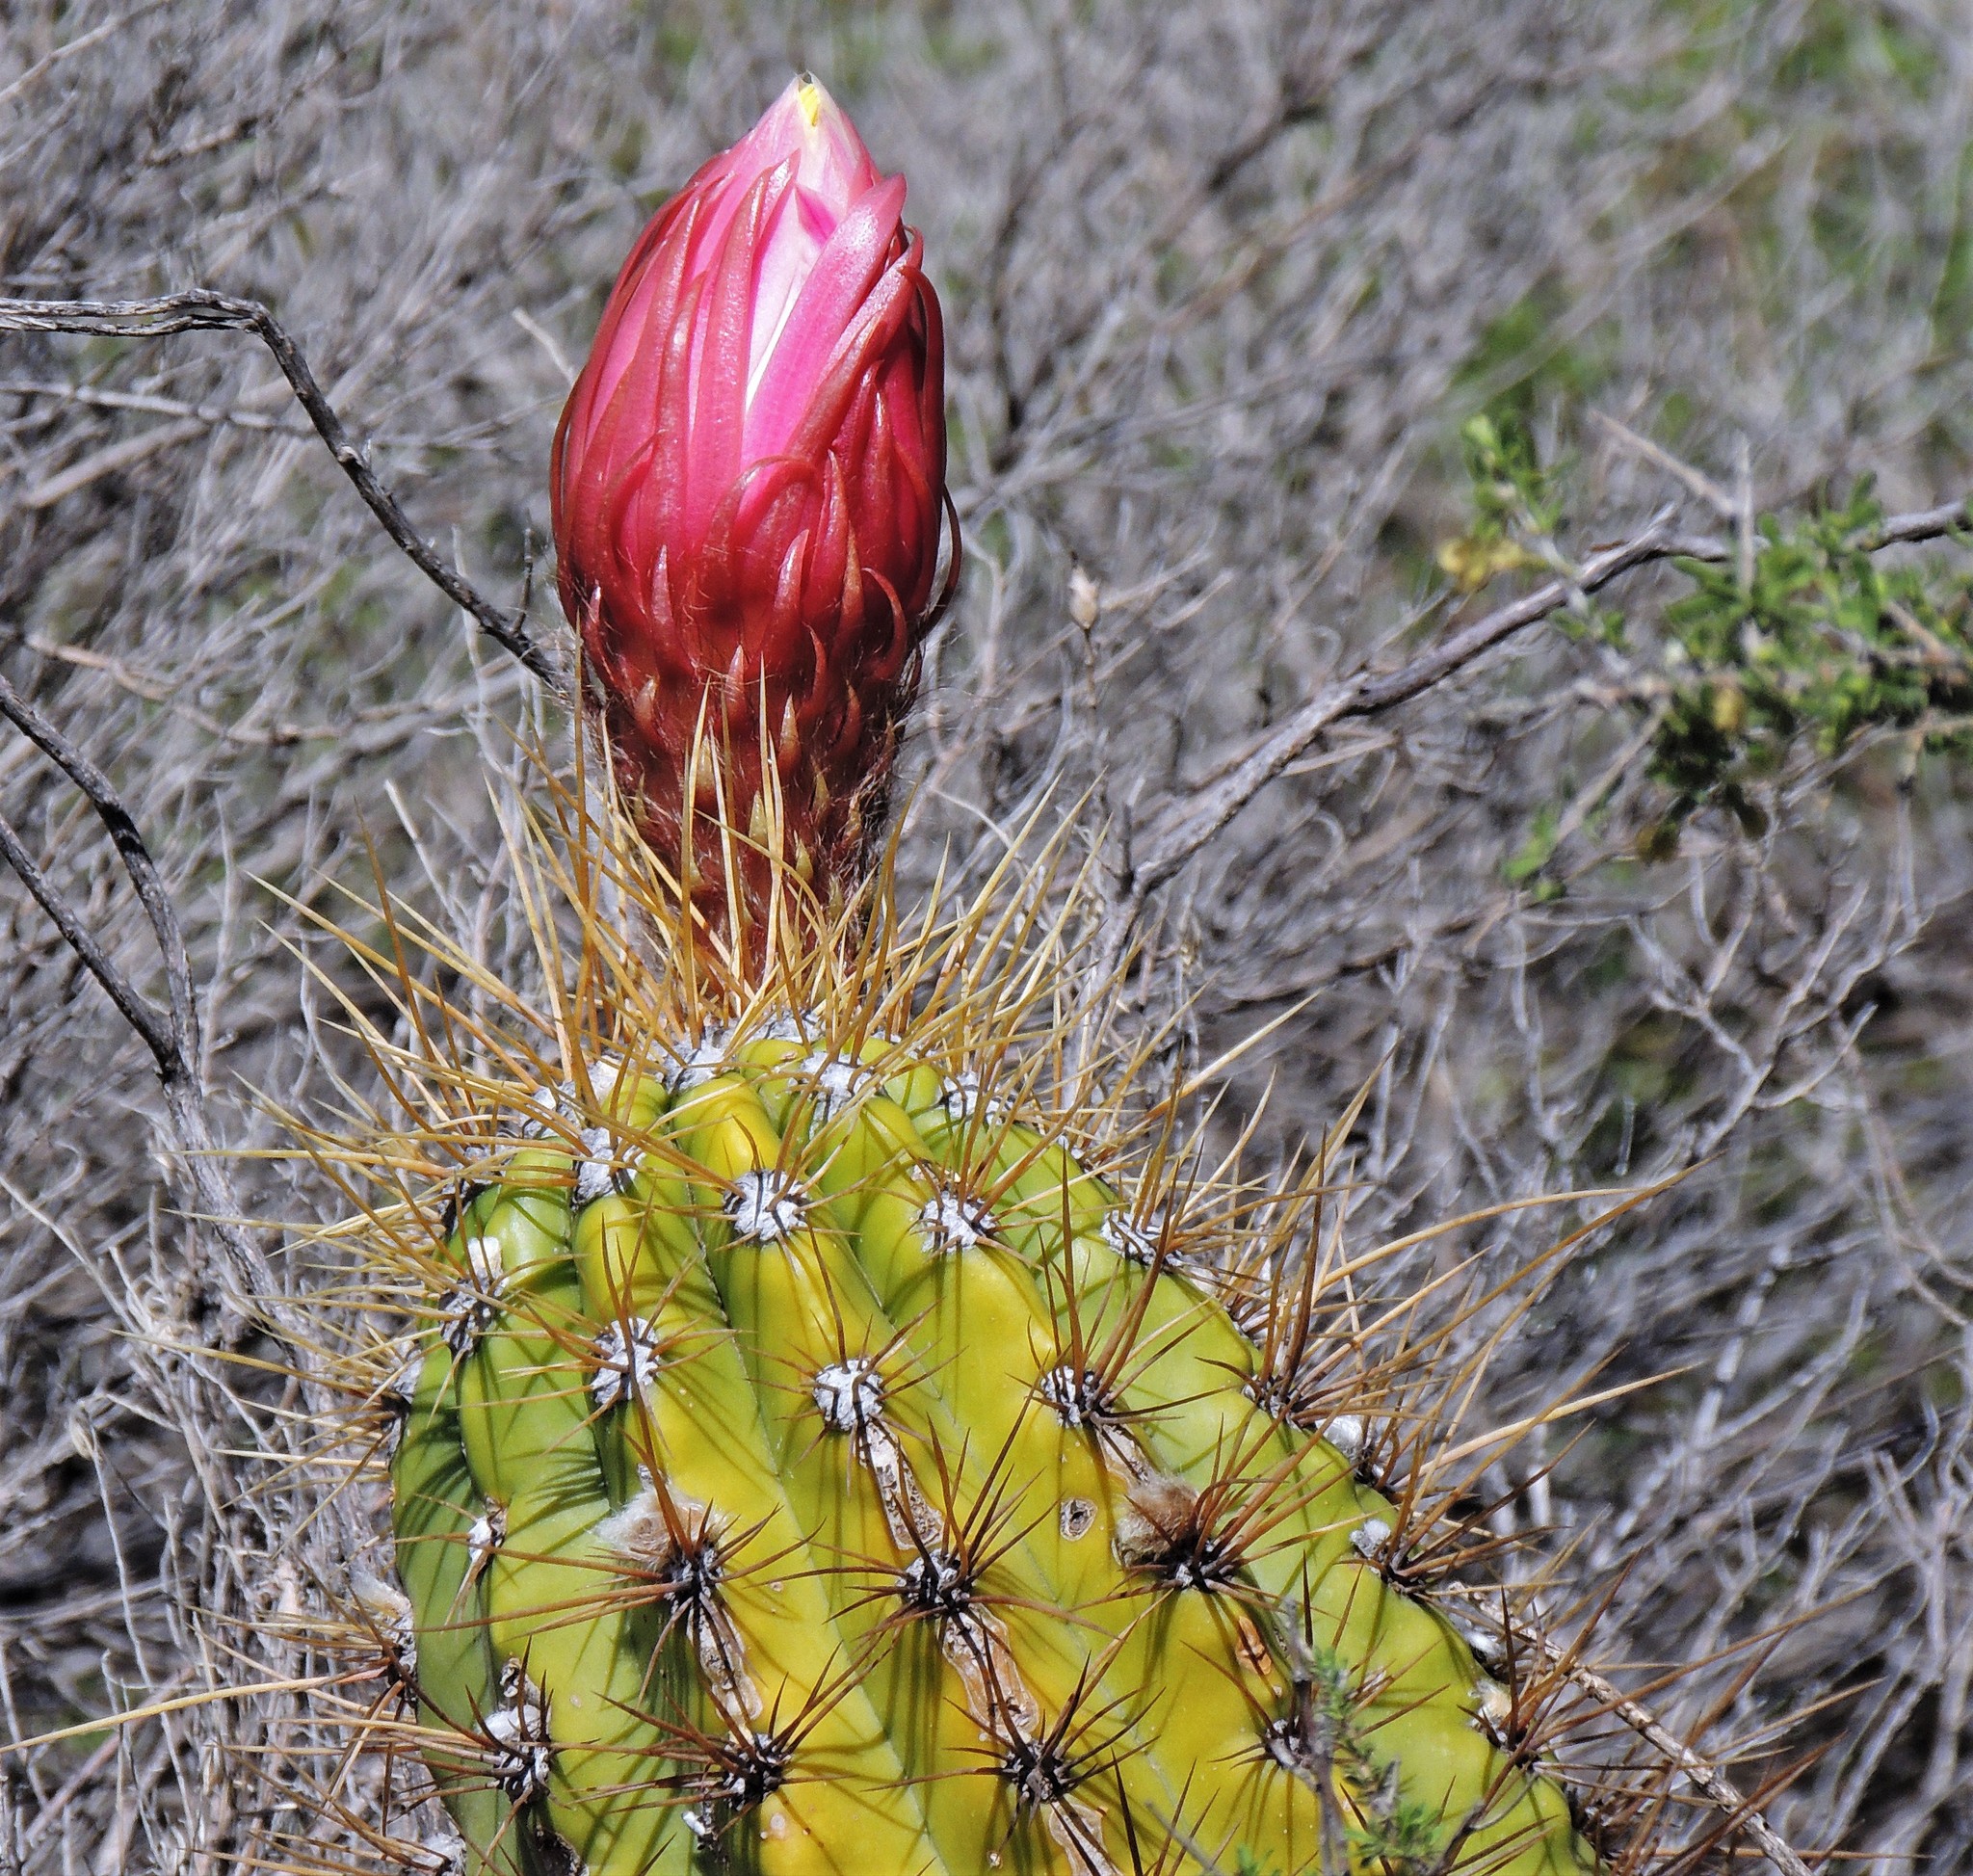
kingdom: Plantae
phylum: Tracheophyta
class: Magnoliopsida
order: Caryophyllales
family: Cactaceae
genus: Soehrensia
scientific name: Soehrensia candicans
